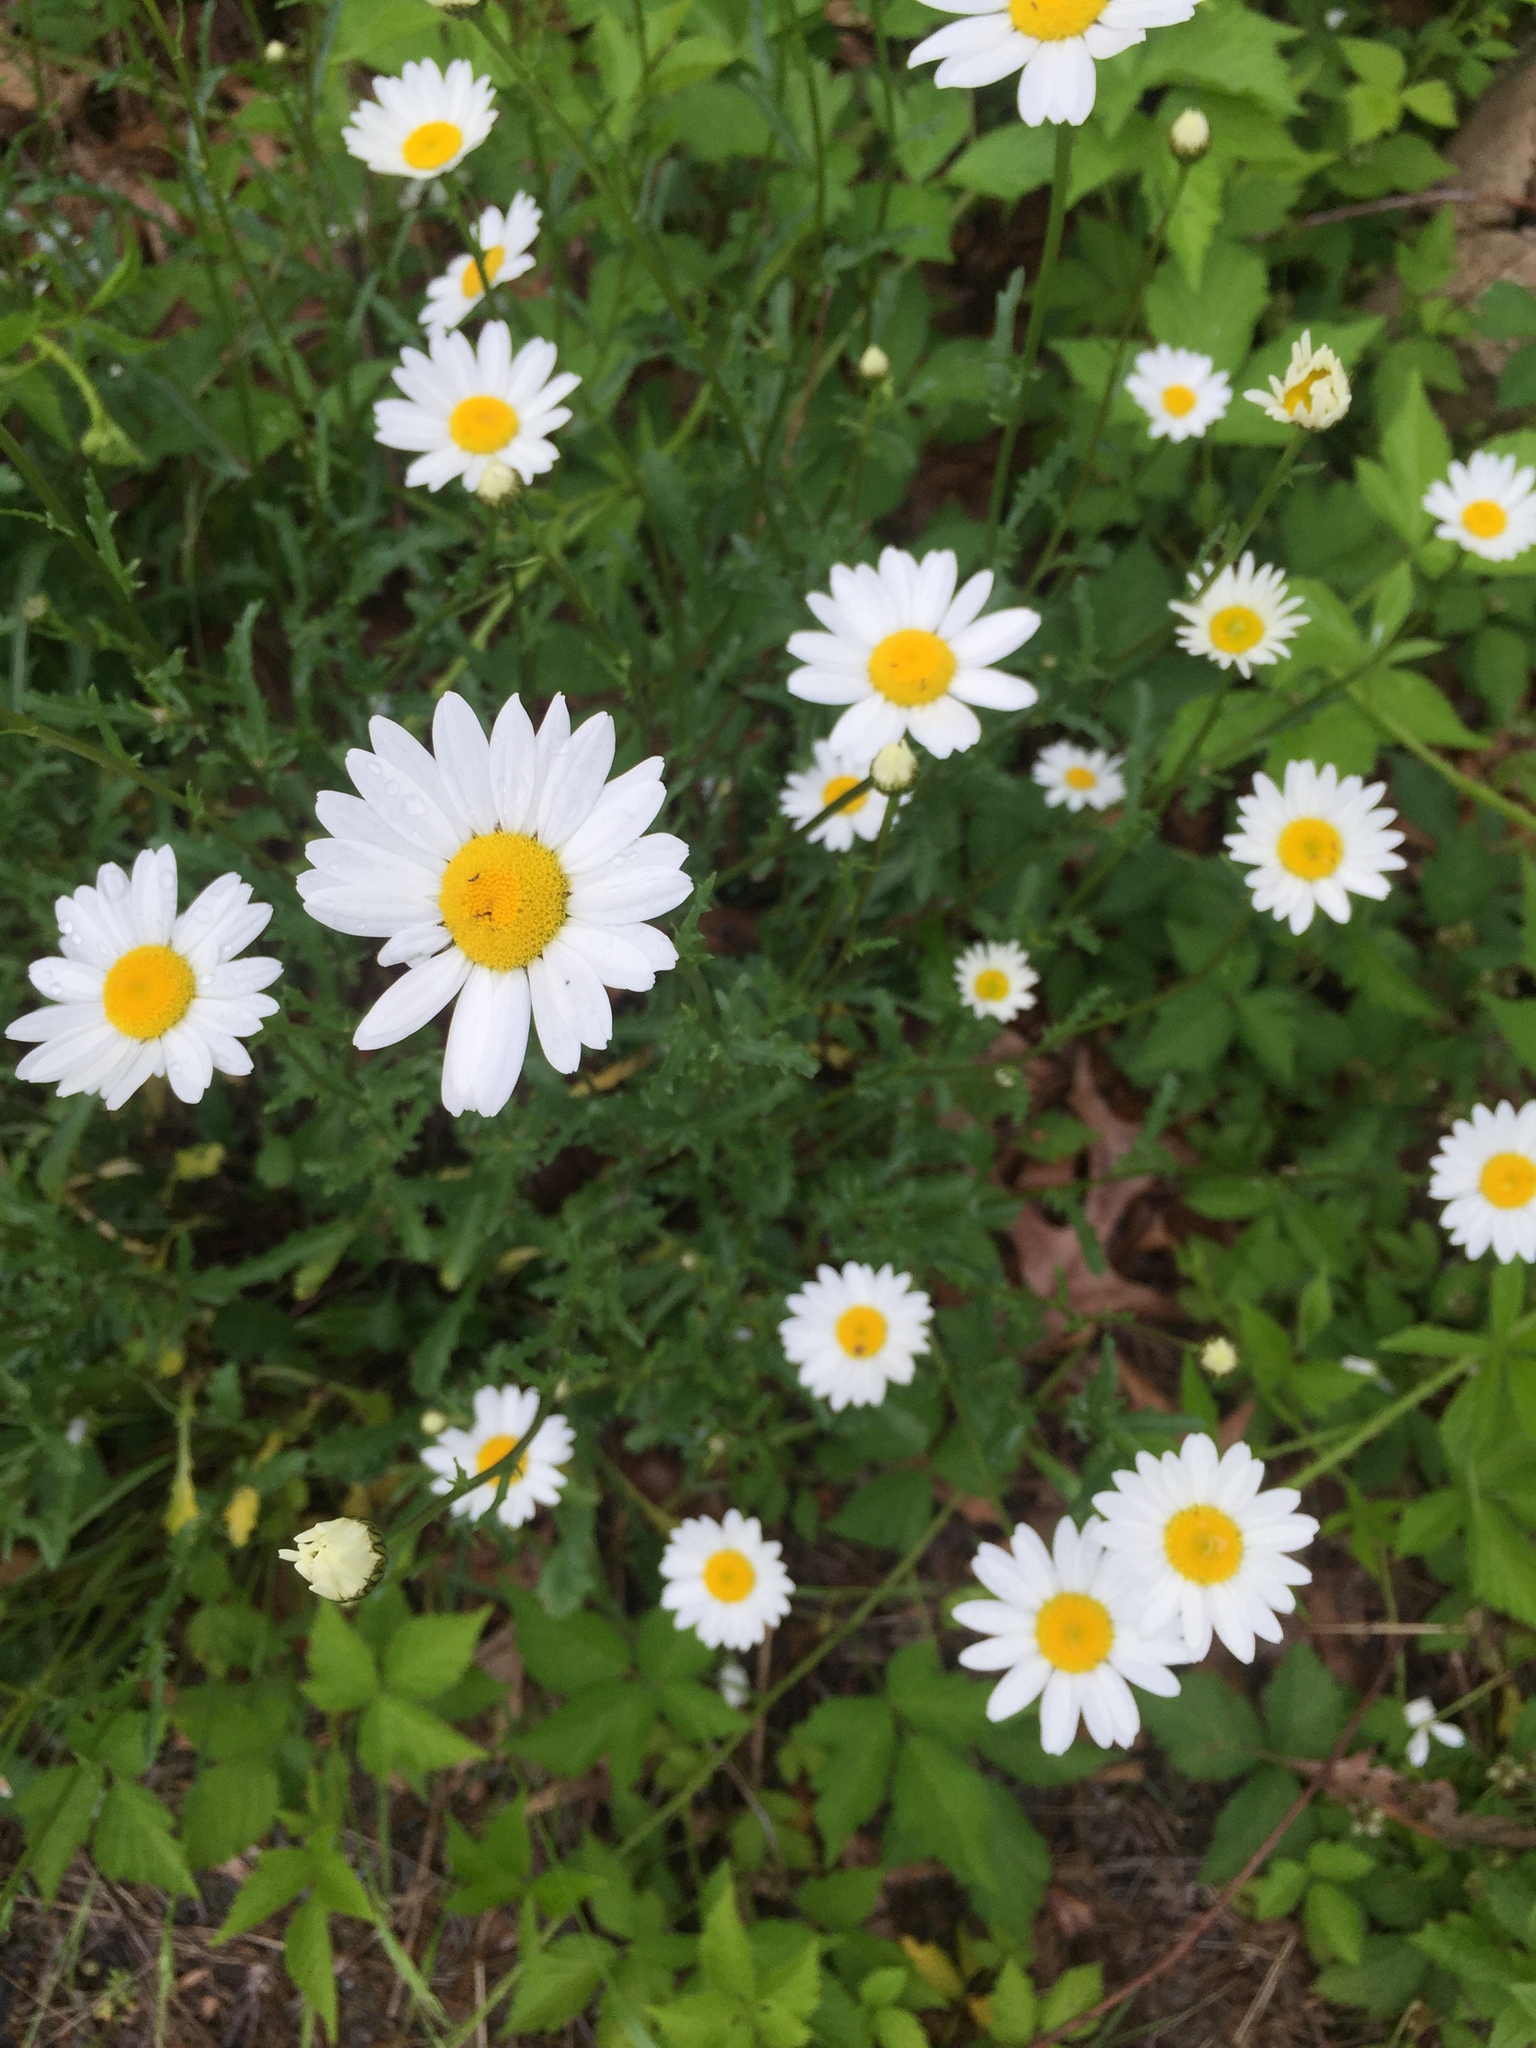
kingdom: Plantae
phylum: Tracheophyta
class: Magnoliopsida
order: Asterales
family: Asteraceae
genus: Leucanthemum
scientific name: Leucanthemum vulgare
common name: Oxeye daisy
